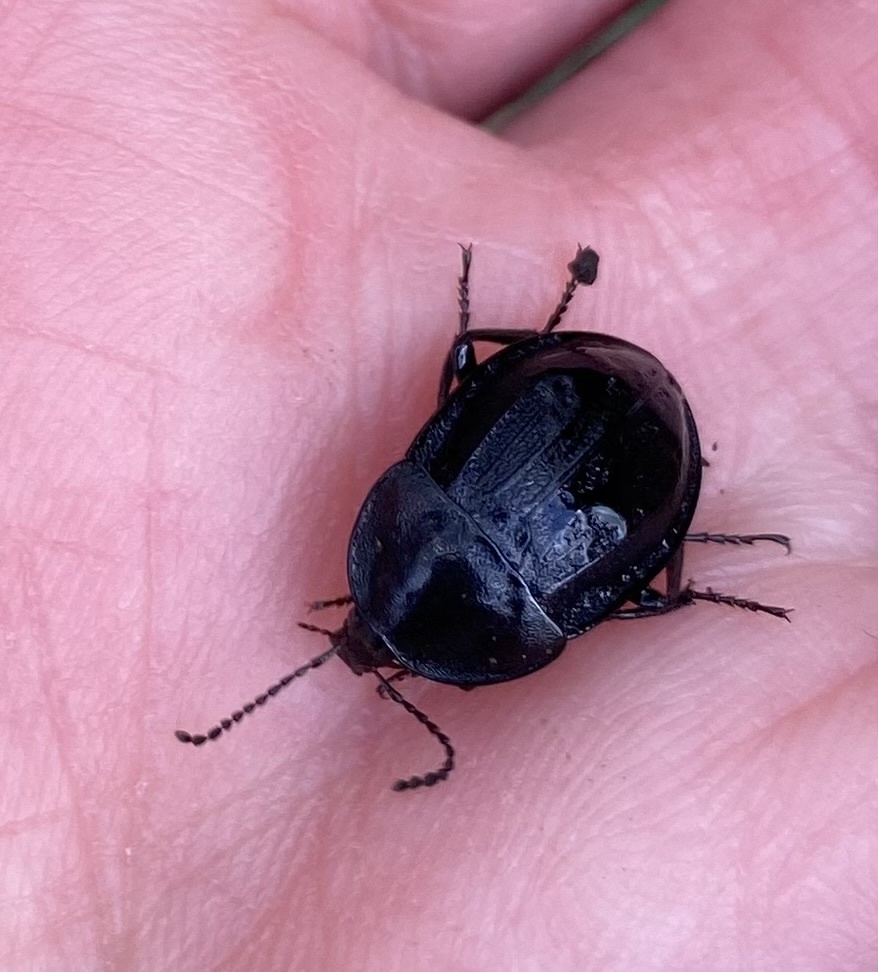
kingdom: Animalia
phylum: Arthropoda
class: Insecta
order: Coleoptera
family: Staphylinidae
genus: Silpha
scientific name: Silpha atrata
